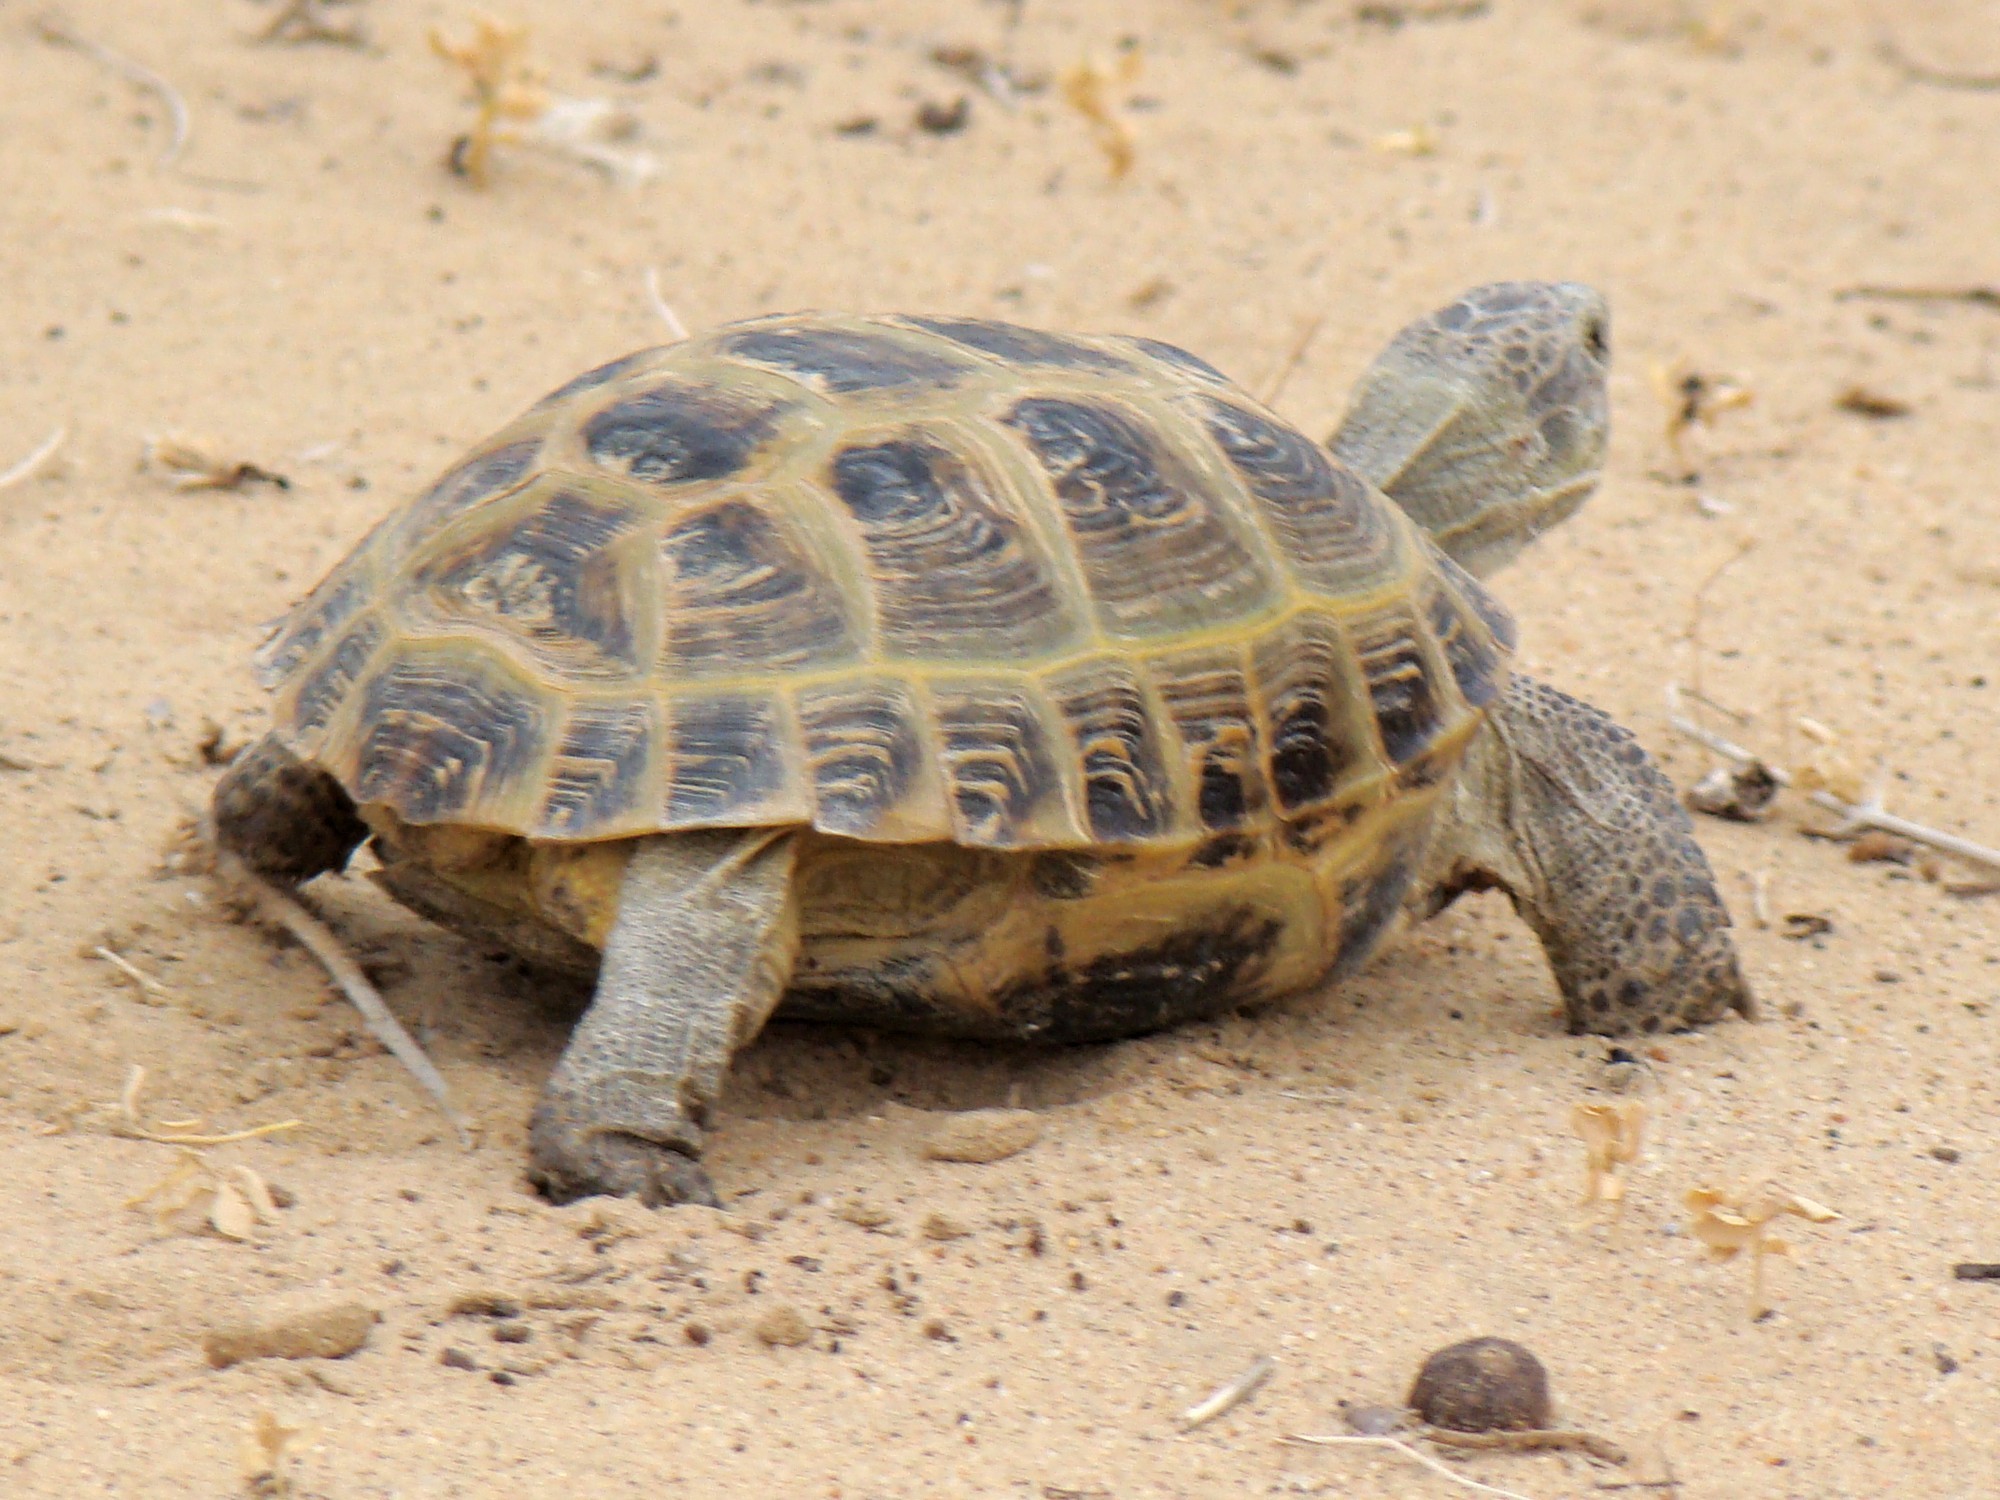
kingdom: Animalia
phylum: Chordata
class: Testudines
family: Testudinidae
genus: Testudo
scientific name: Testudo horsfieldii
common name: Central asia tortoise
